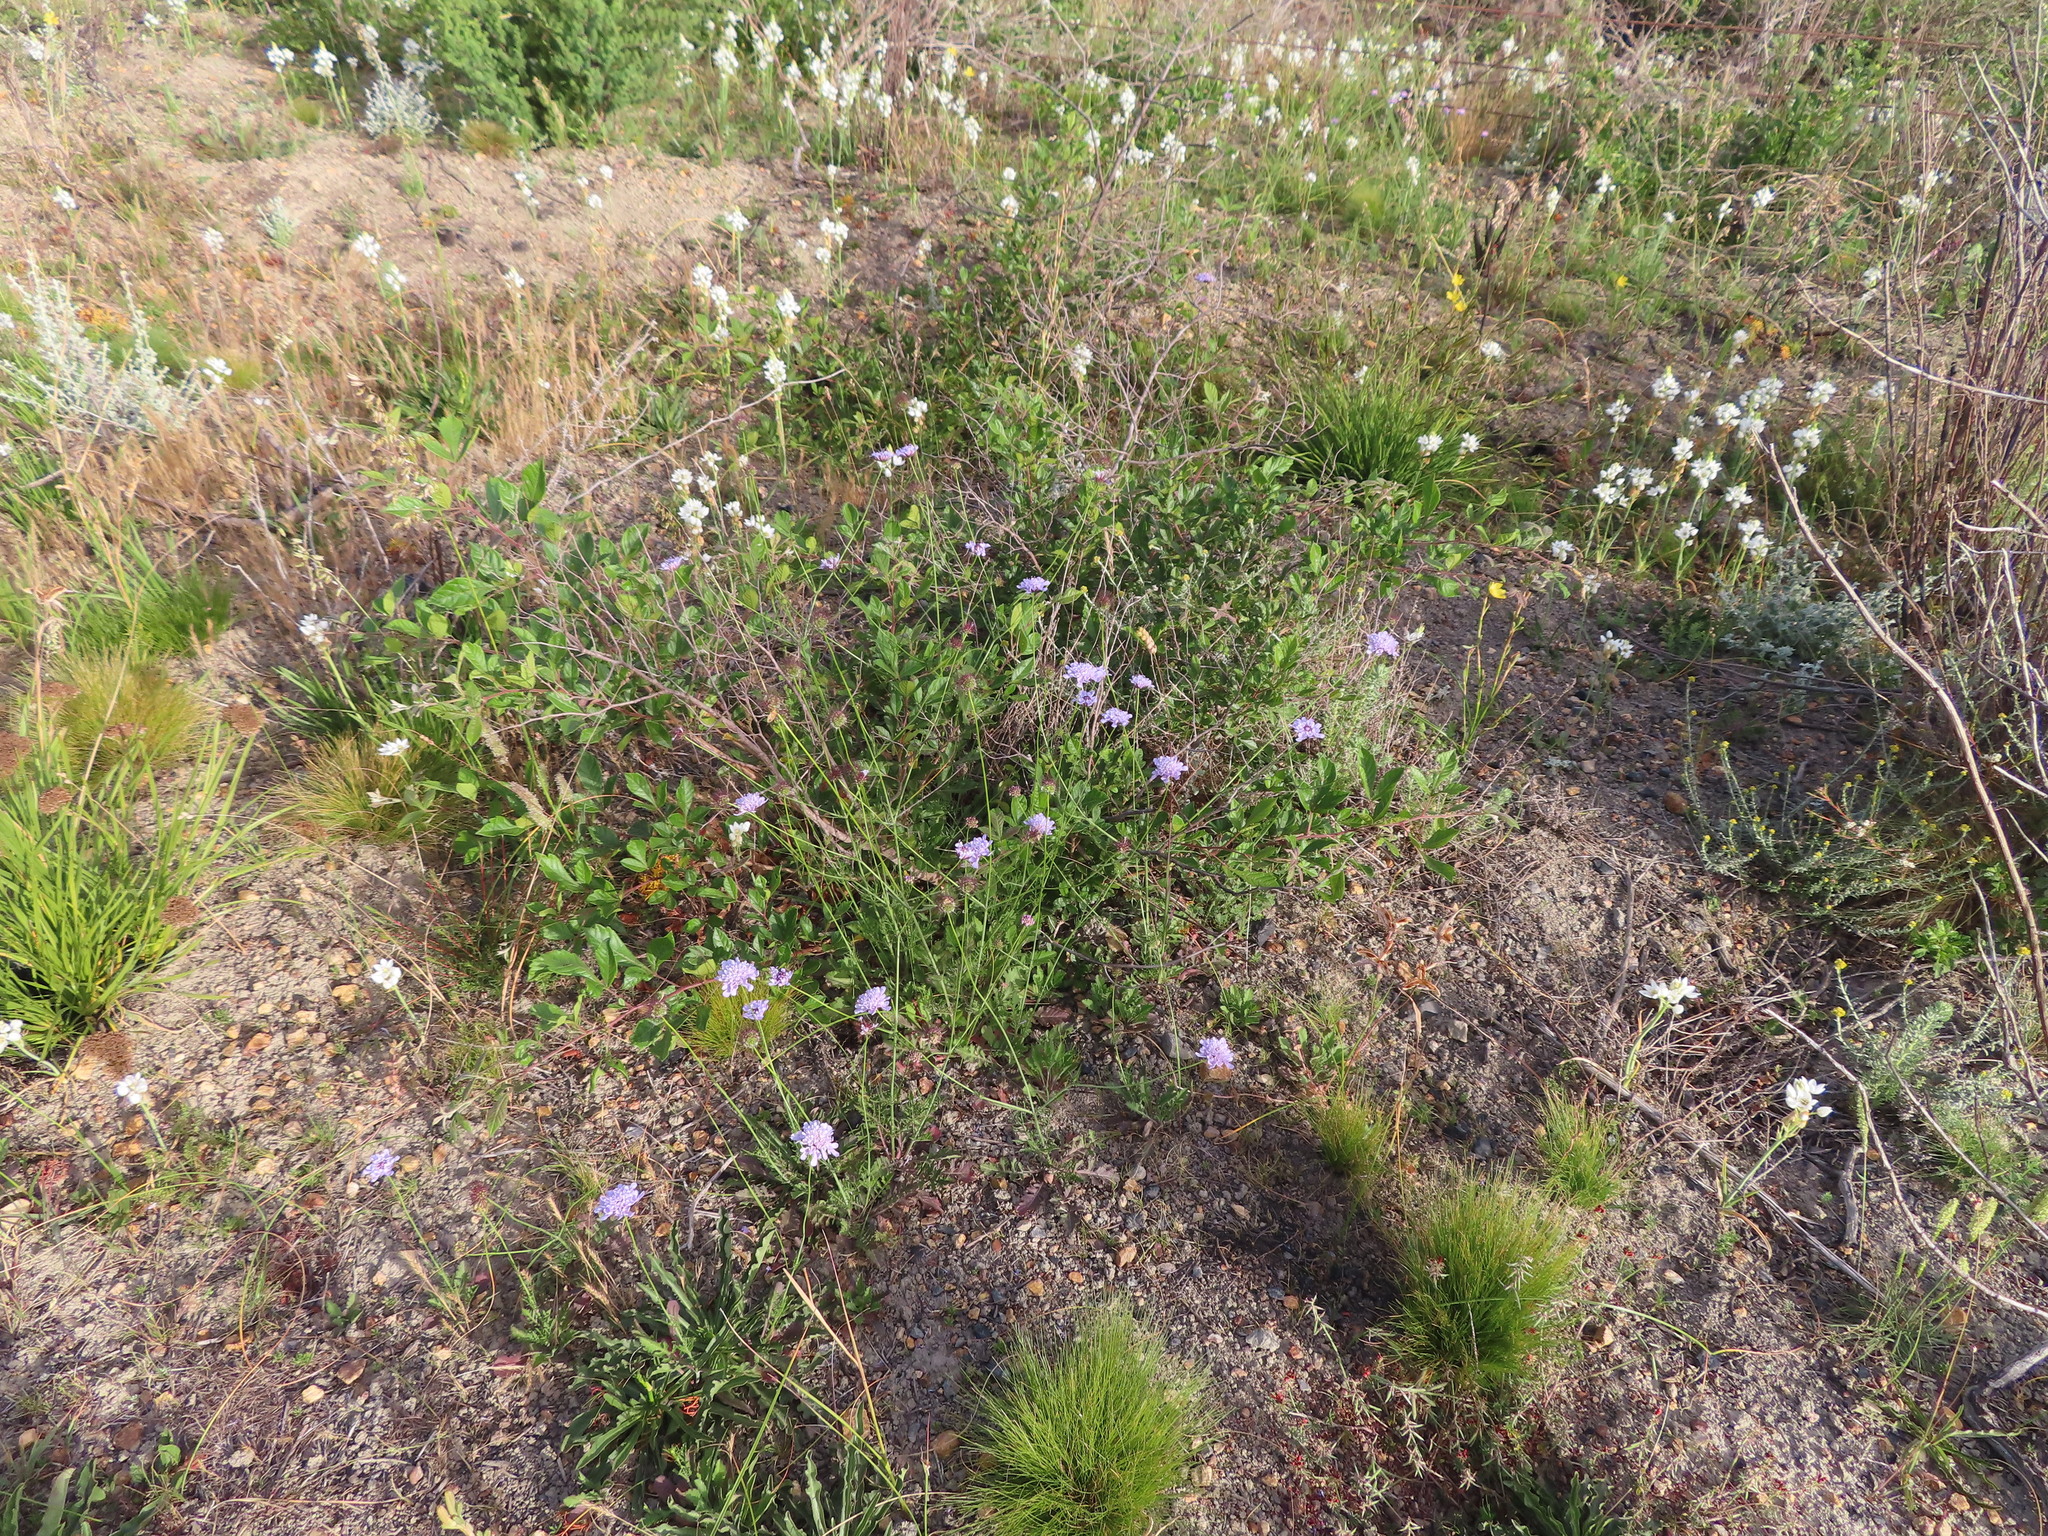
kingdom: Plantae
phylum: Tracheophyta
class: Magnoliopsida
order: Dipsacales
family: Caprifoliaceae
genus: Scabiosa
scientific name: Scabiosa columbaria
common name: Small scabious
